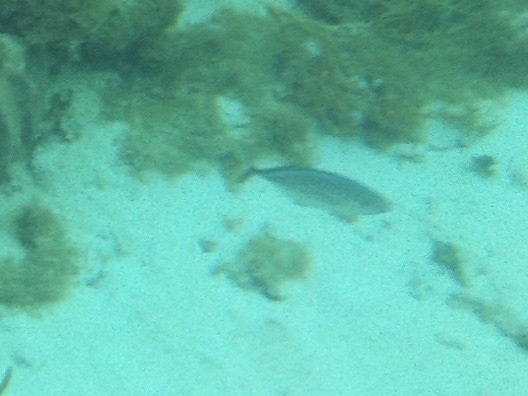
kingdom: Animalia
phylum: Chordata
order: Perciformes
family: Carangidae
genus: Caranx
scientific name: Caranx ruber
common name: Bar jack
